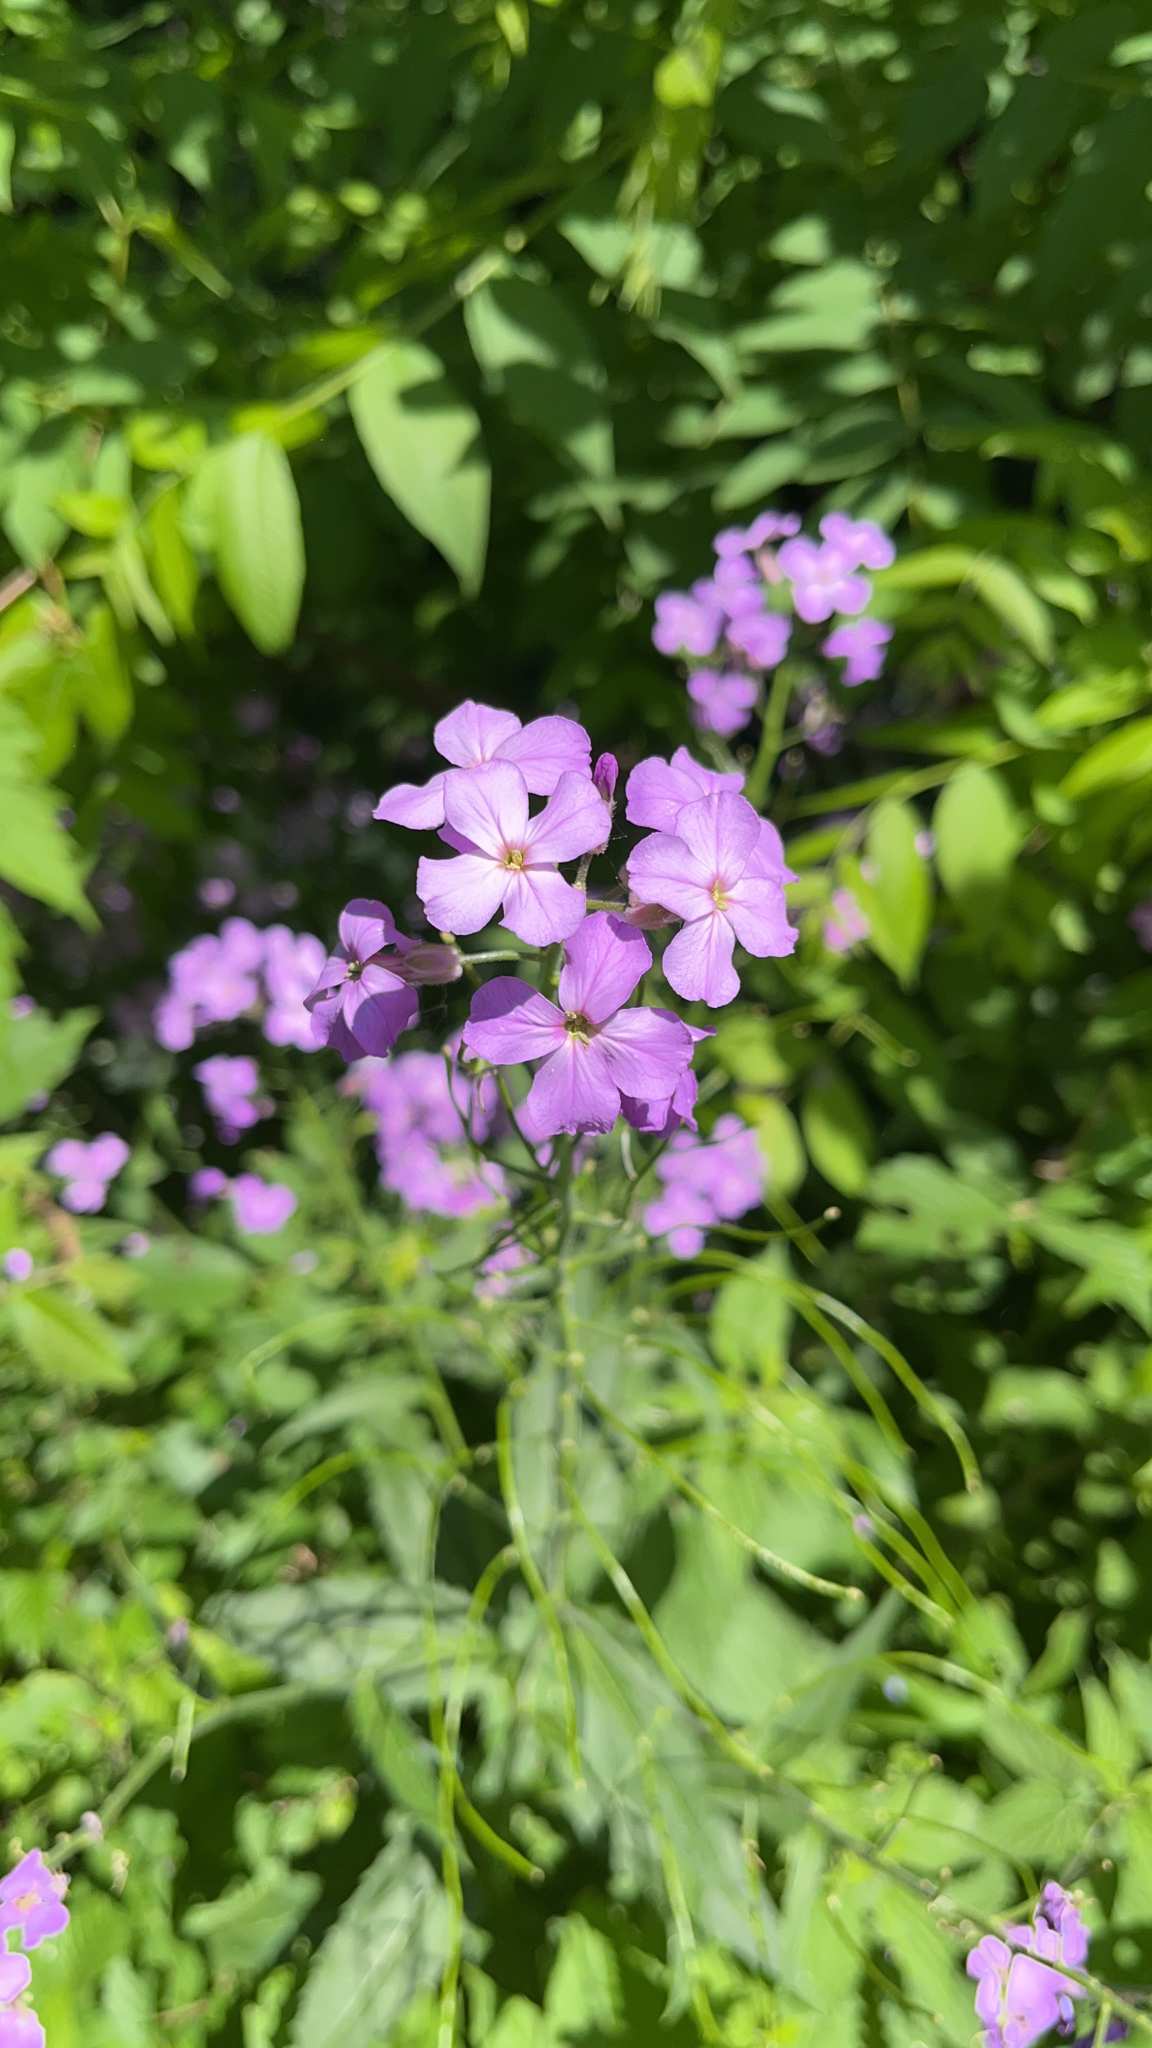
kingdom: Plantae
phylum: Tracheophyta
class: Magnoliopsida
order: Brassicales
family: Brassicaceae
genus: Hesperis
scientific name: Hesperis matronalis
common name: Dame's-violet
